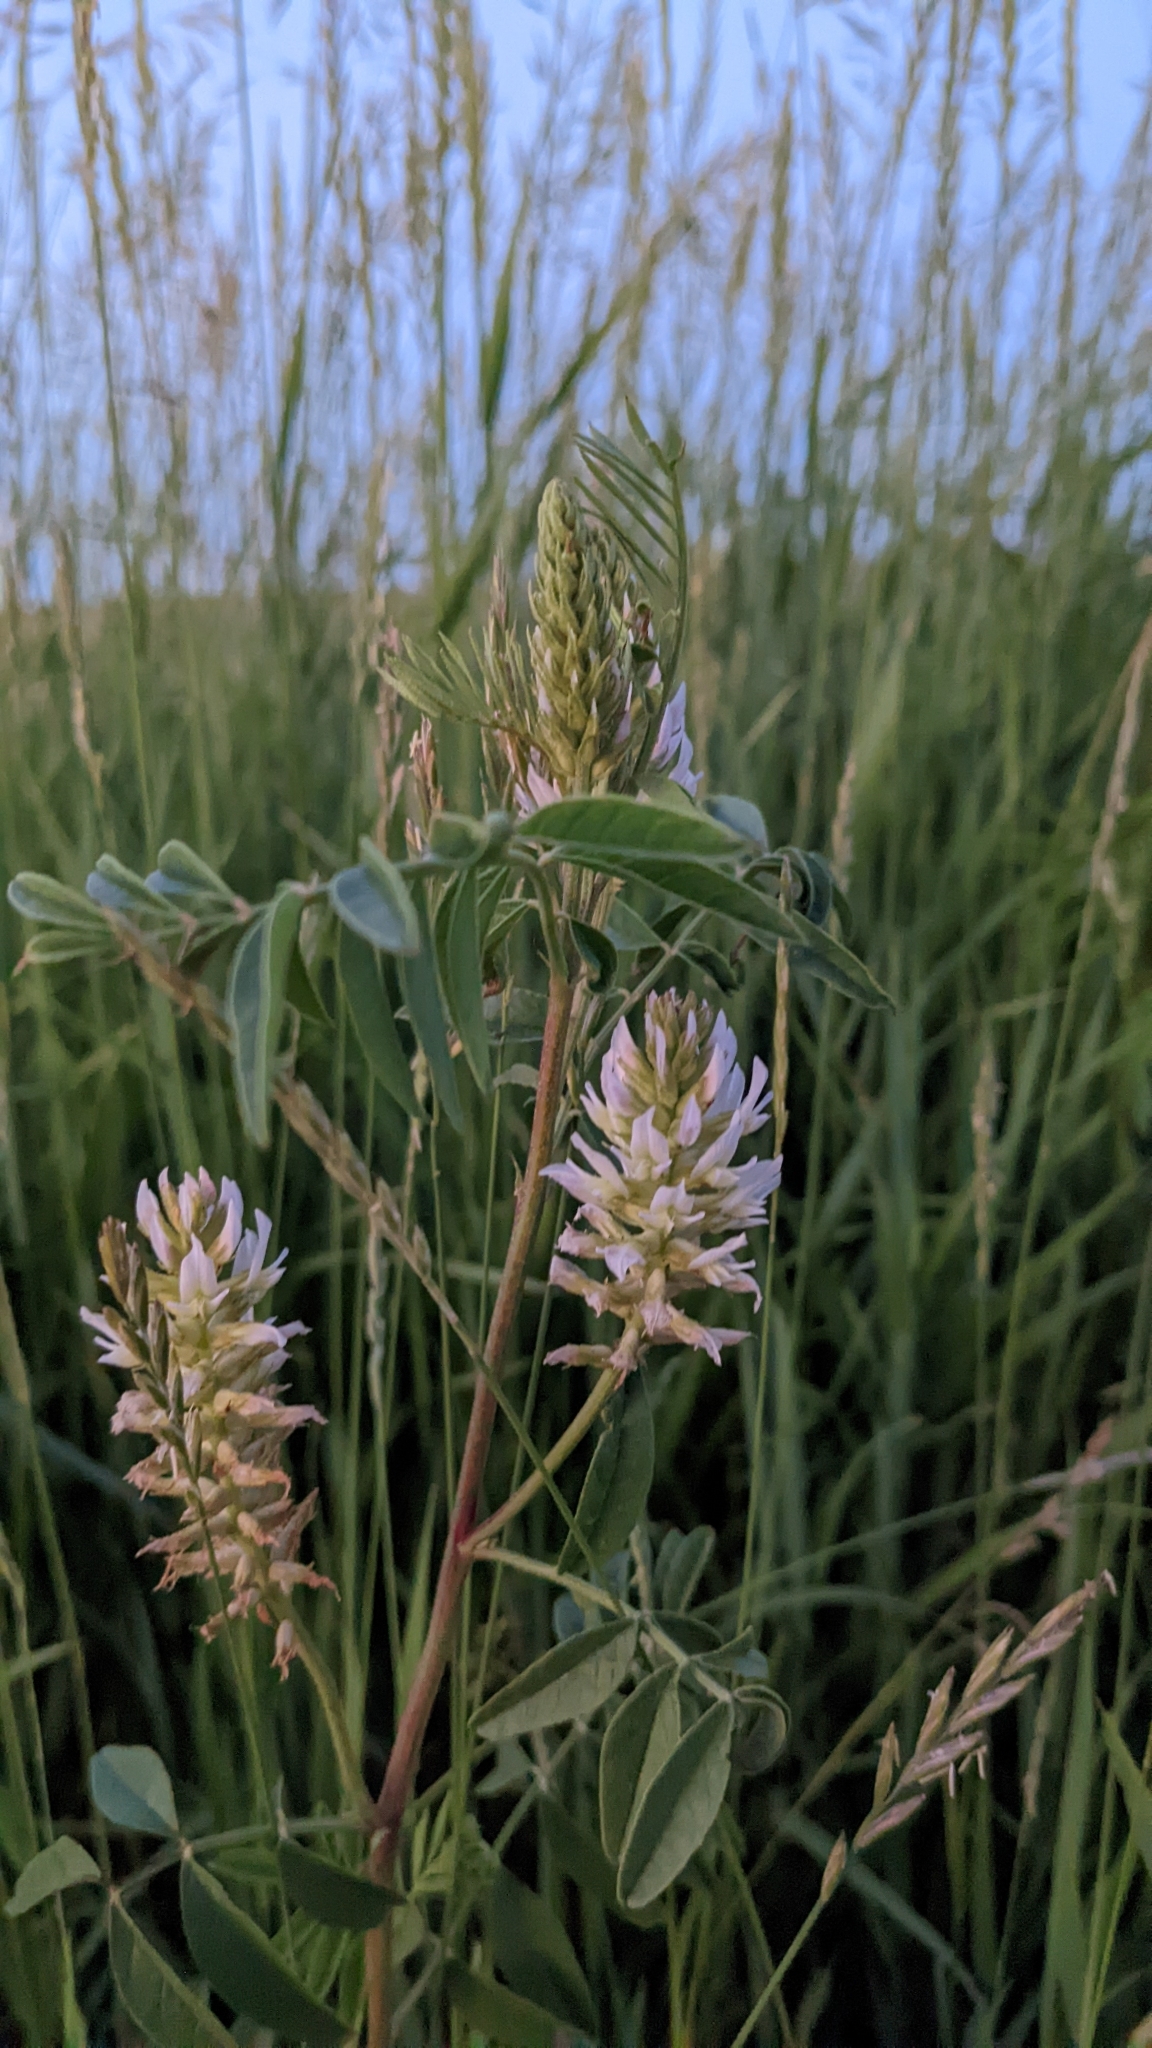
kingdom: Plantae
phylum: Tracheophyta
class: Magnoliopsida
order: Fabales
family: Fabaceae
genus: Glycyrrhiza
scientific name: Glycyrrhiza lepidota
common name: American liquorice
